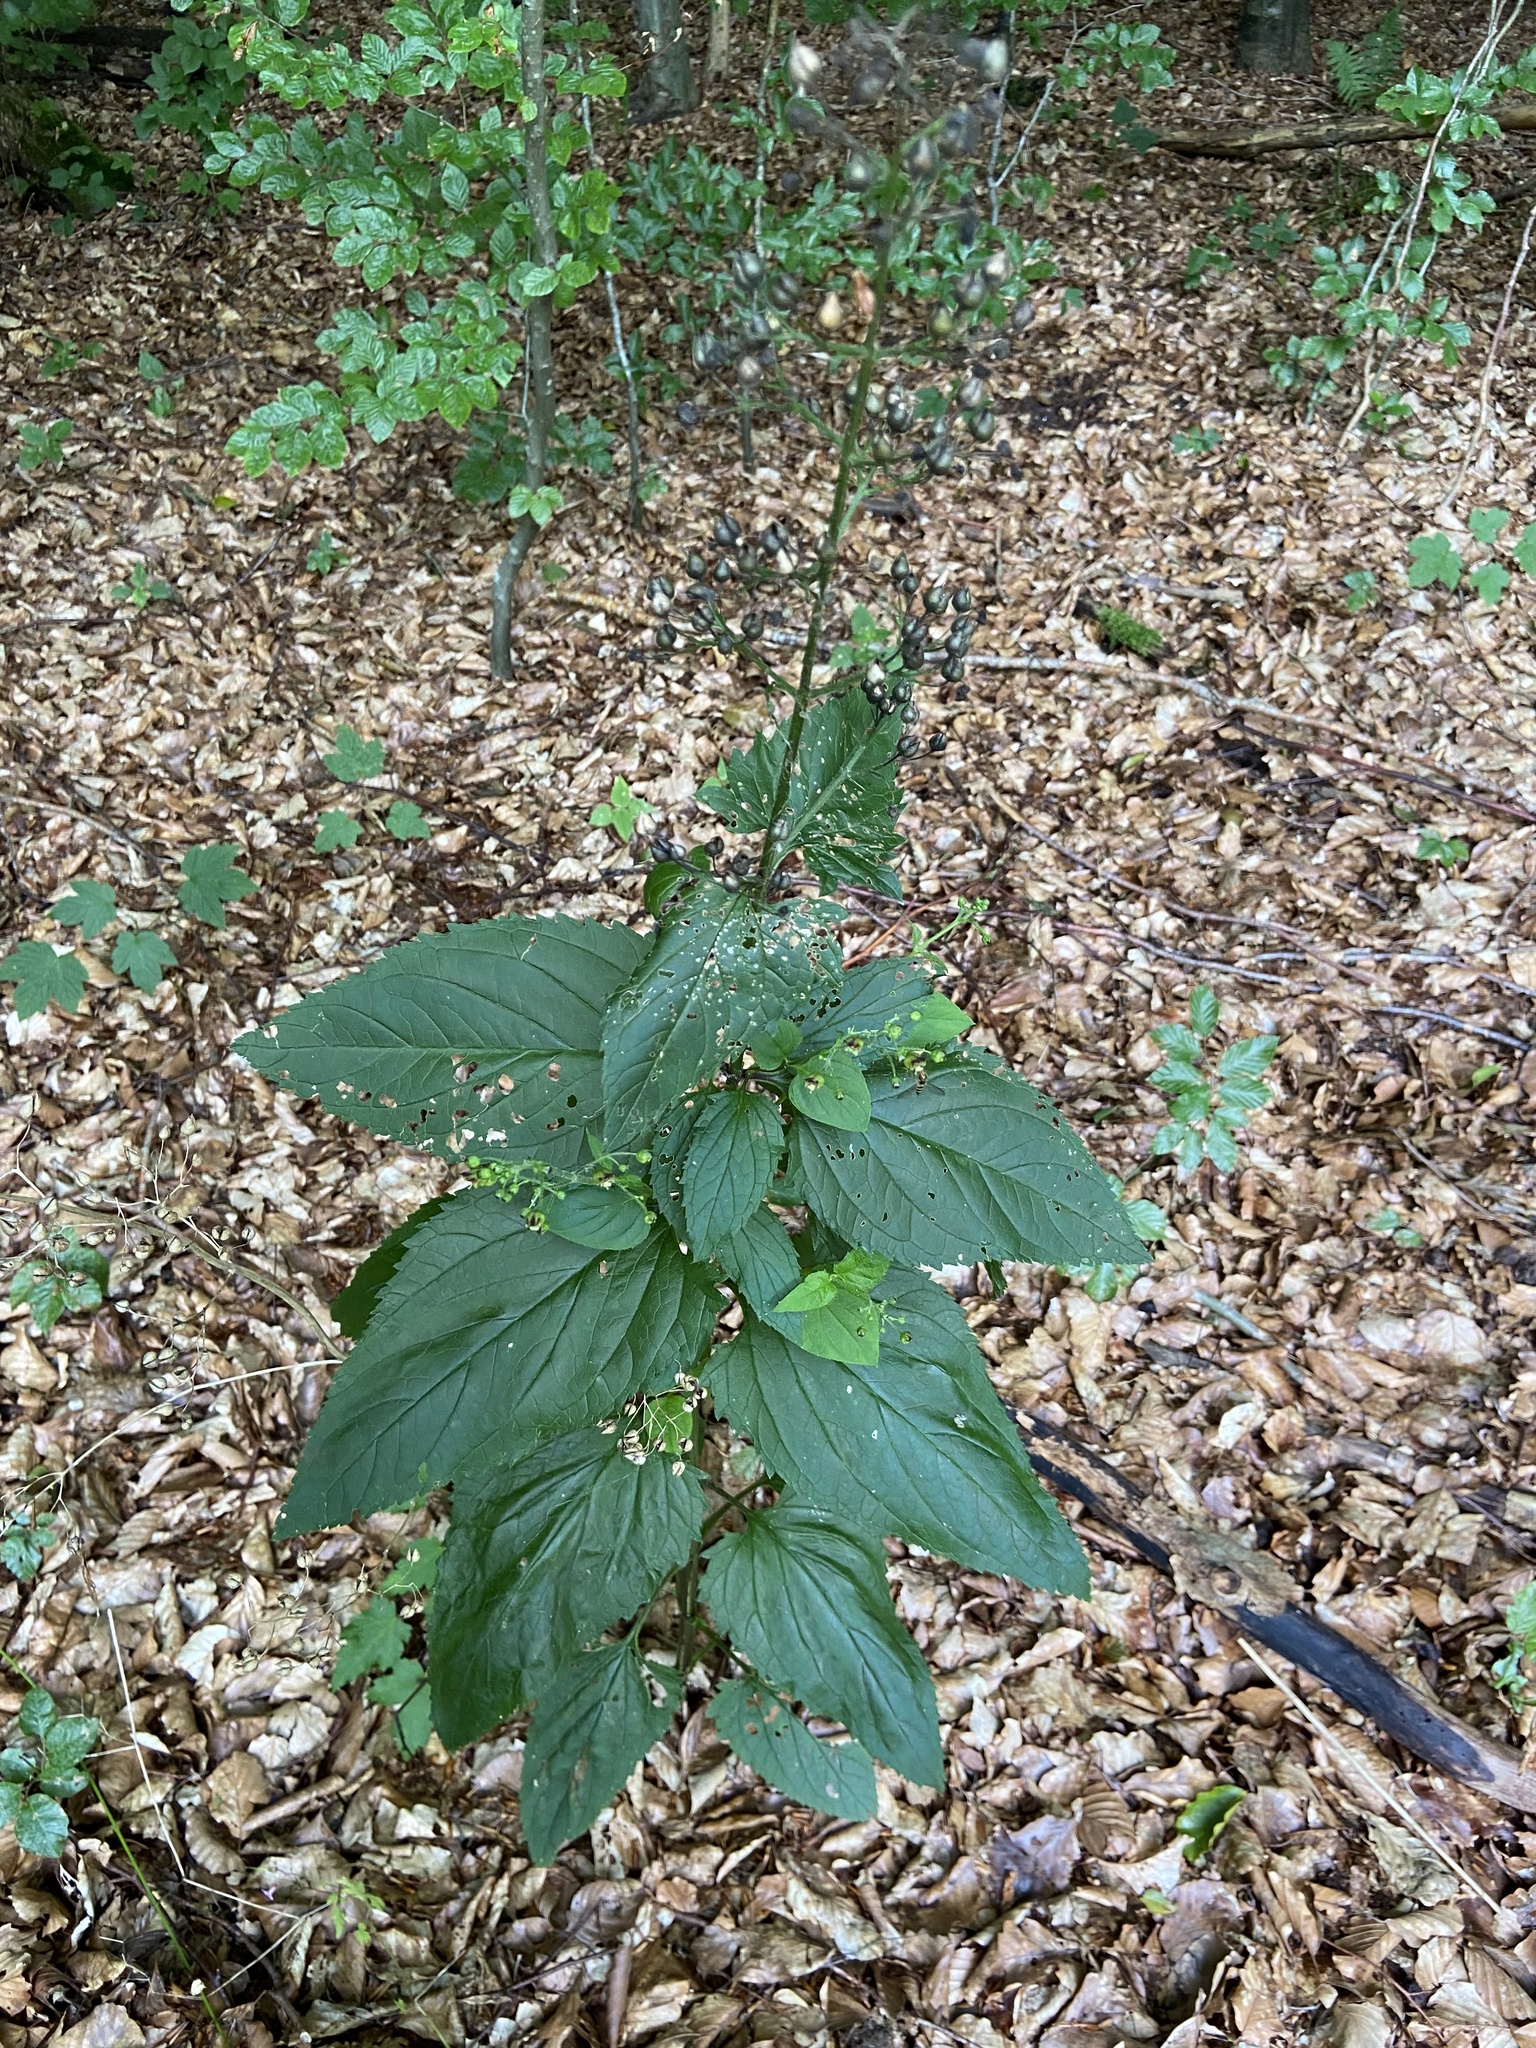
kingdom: Plantae
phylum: Tracheophyta
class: Magnoliopsida
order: Lamiales
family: Scrophulariaceae
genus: Scrophularia
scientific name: Scrophularia nodosa
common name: Common figwort
